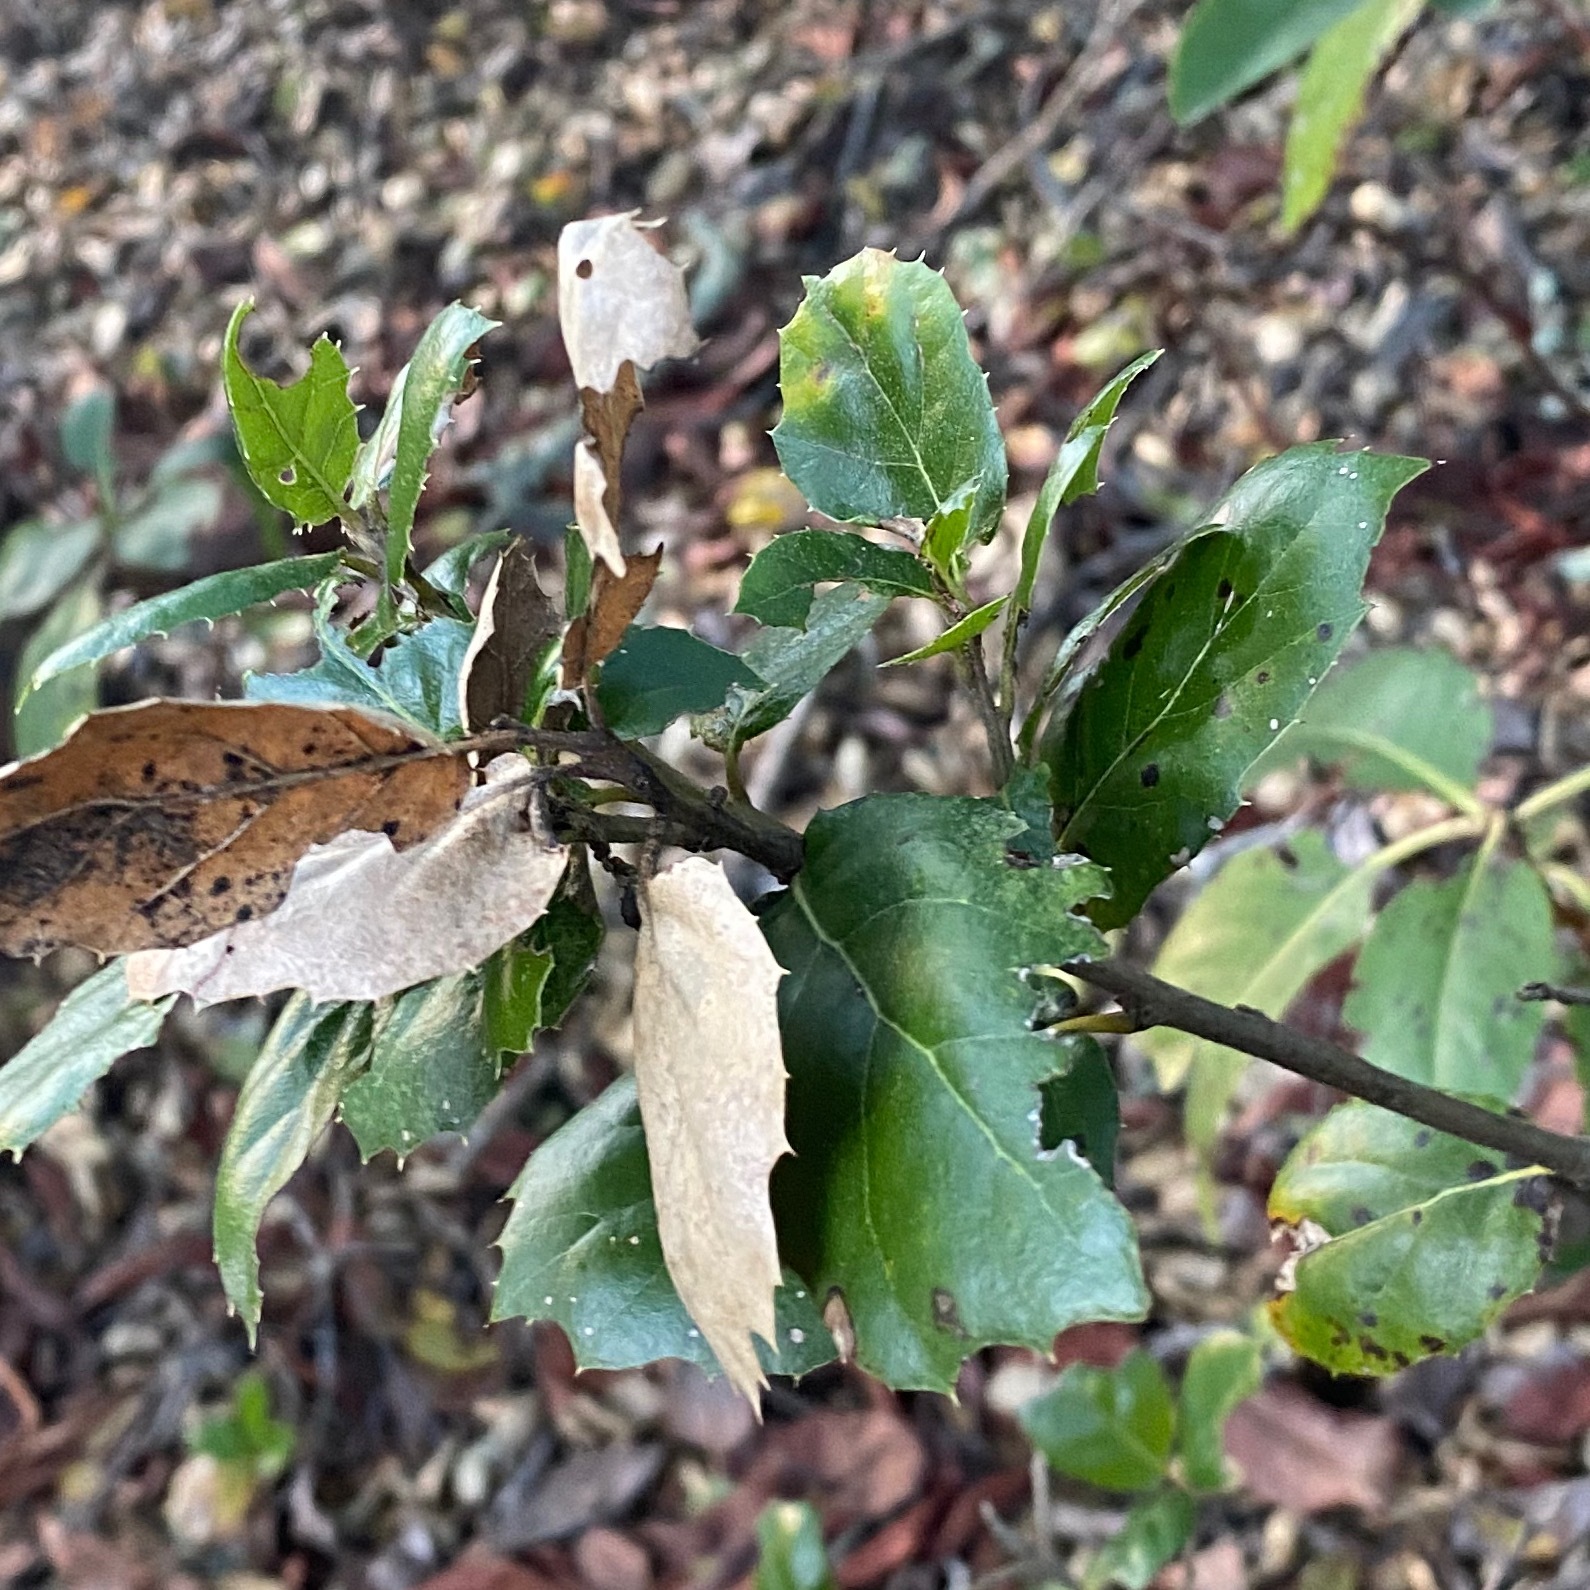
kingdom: Plantae
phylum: Tracheophyta
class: Magnoliopsida
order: Fagales
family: Fagaceae
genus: Quercus
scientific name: Quercus agrifolia
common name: California live oak
